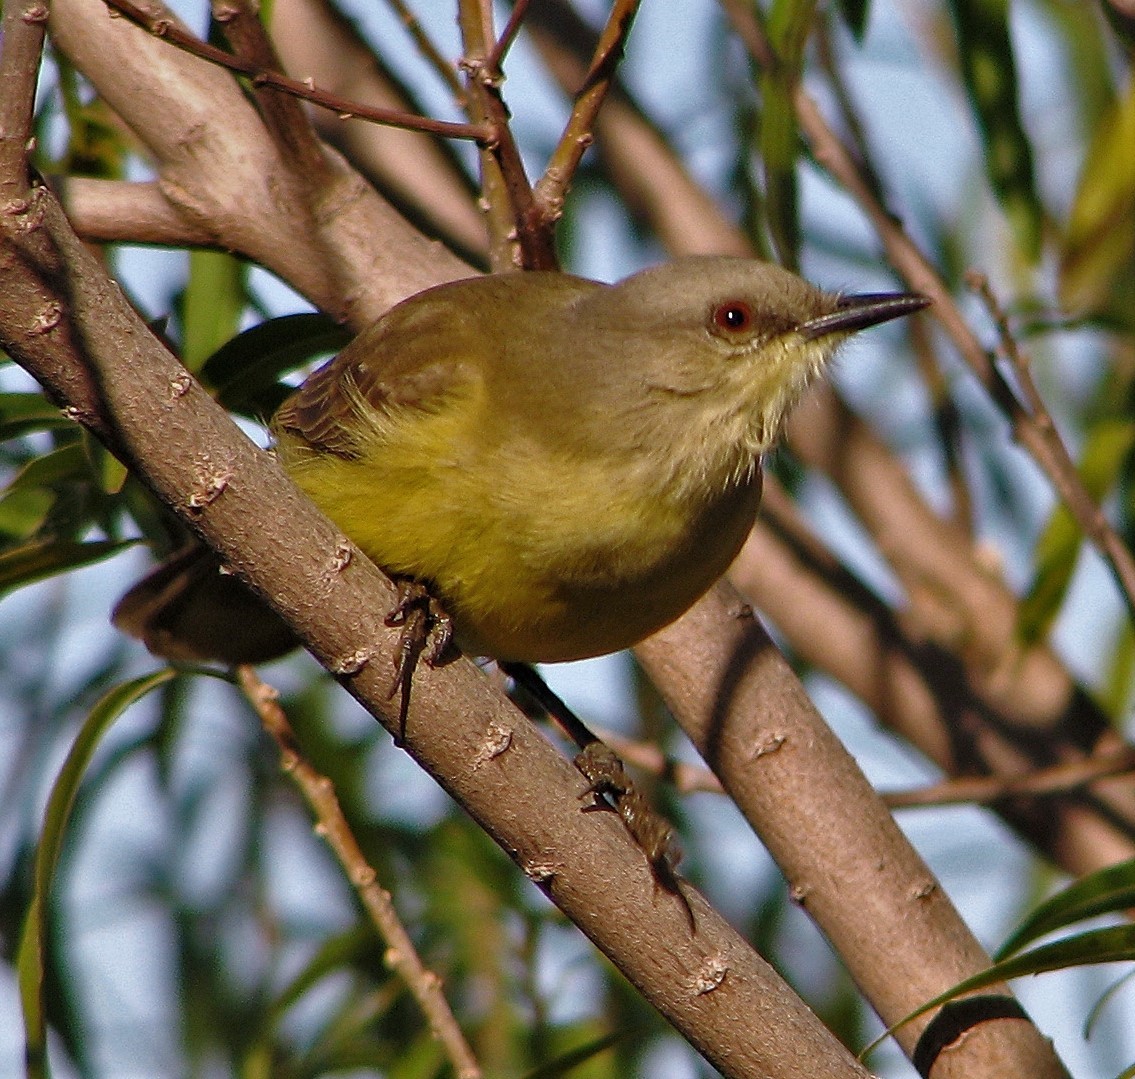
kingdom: Animalia
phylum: Chordata
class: Aves
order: Passeriformes
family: Tyrannidae
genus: Machetornis
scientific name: Machetornis rixosa
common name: Cattle tyrant
